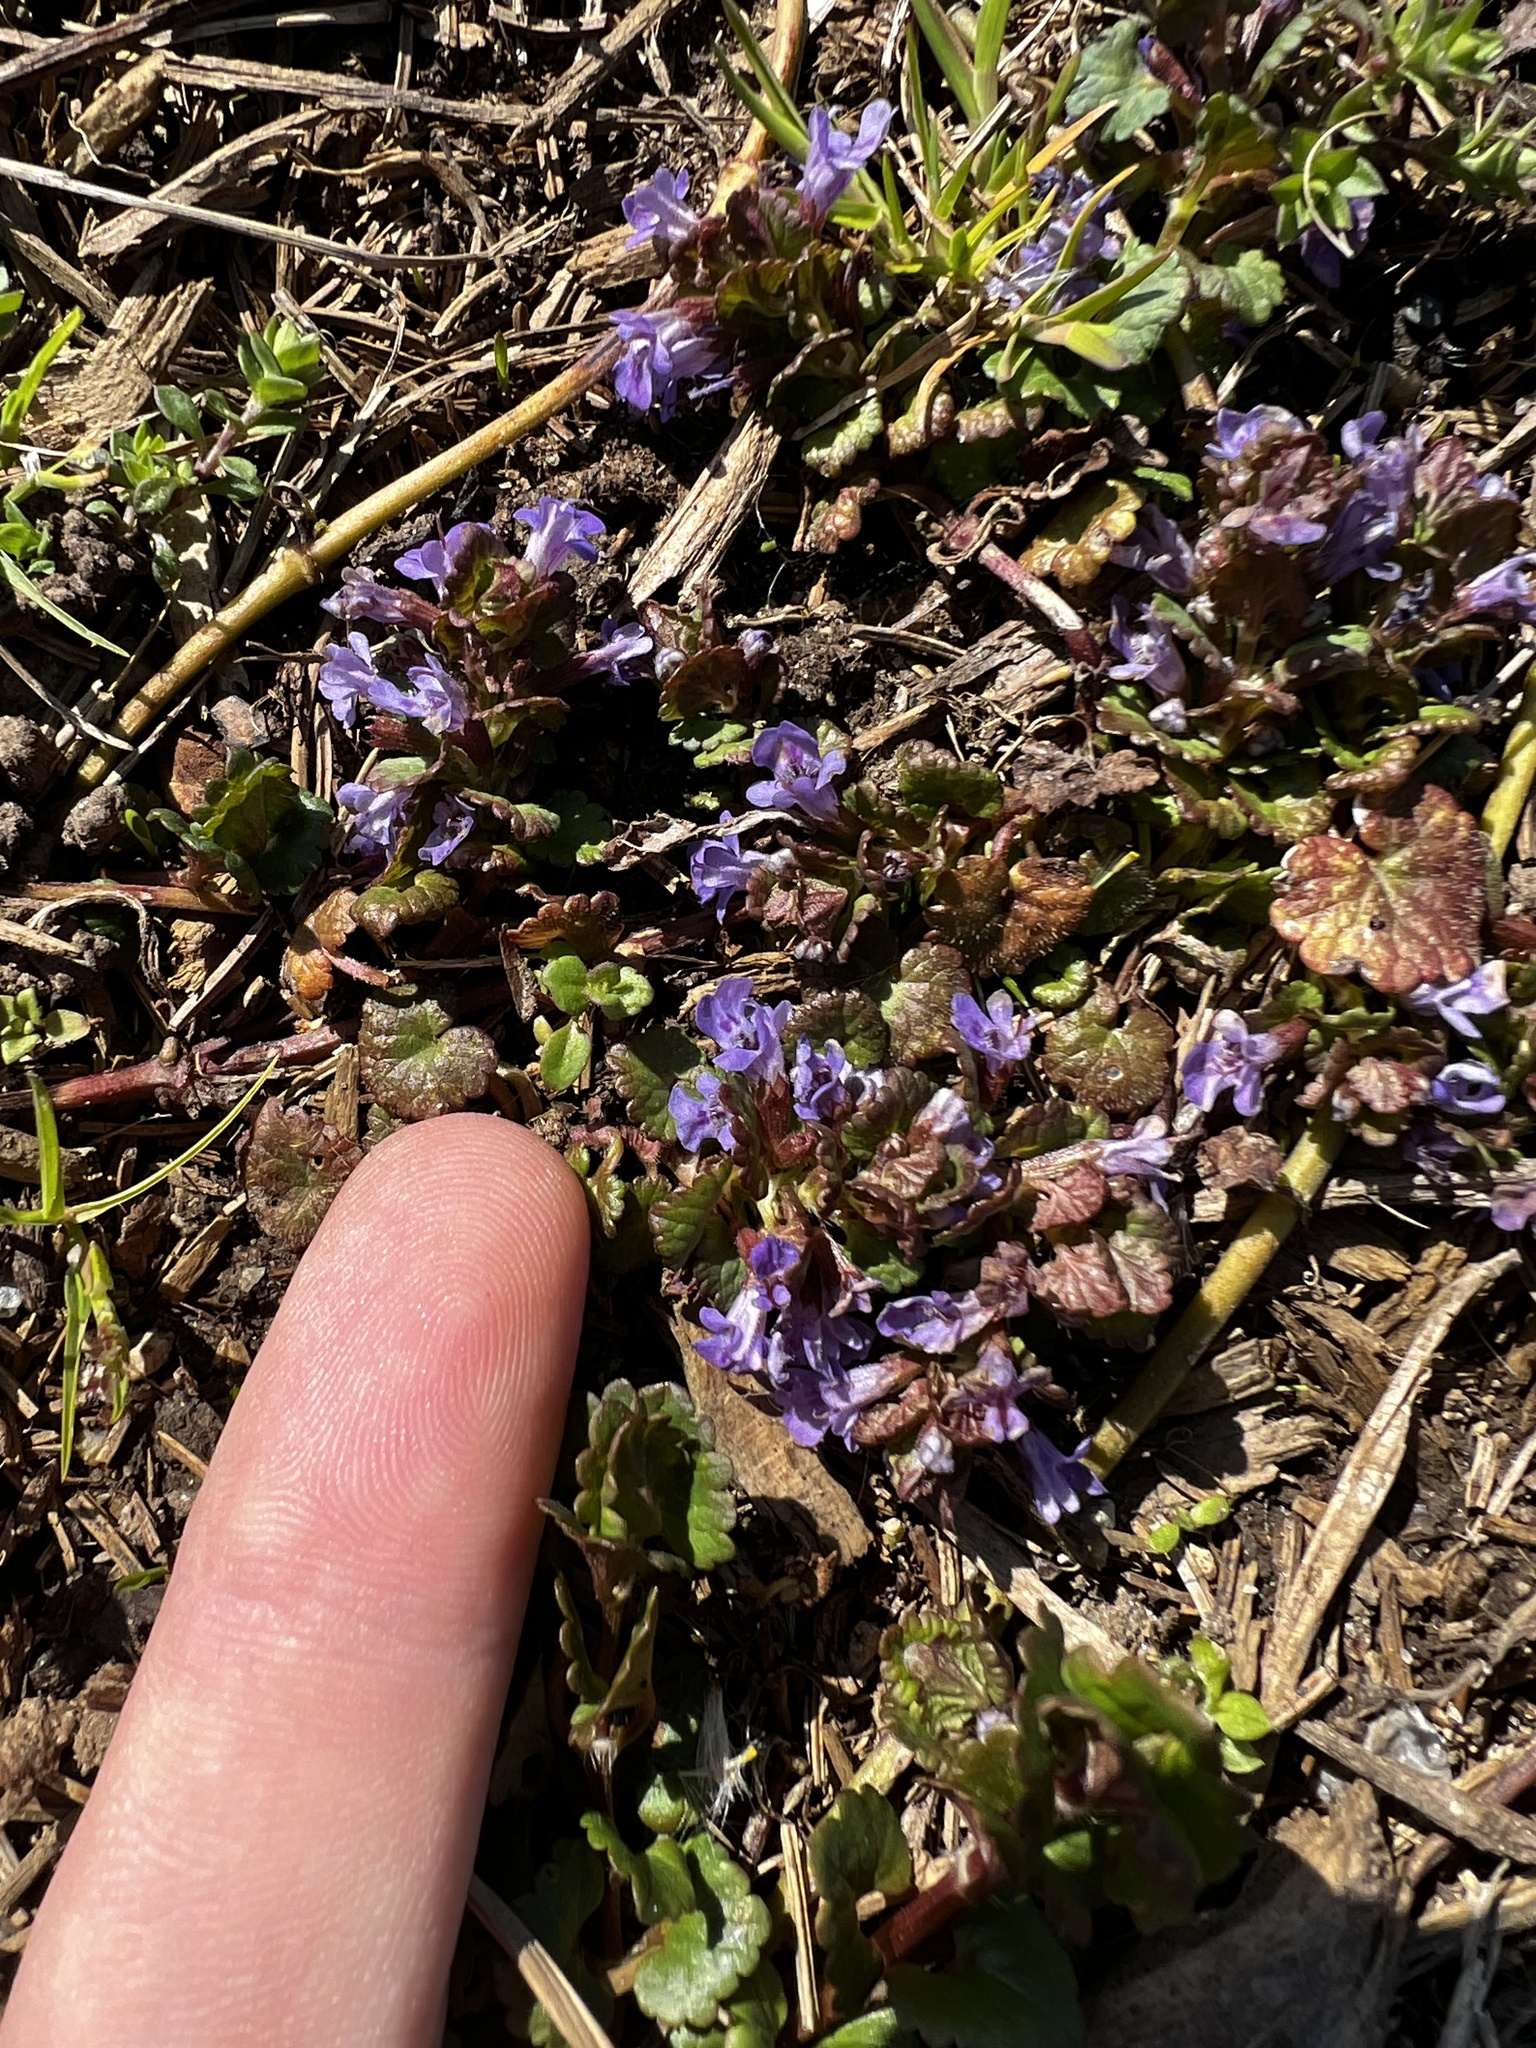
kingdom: Plantae
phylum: Tracheophyta
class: Magnoliopsida
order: Lamiales
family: Lamiaceae
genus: Glechoma
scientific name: Glechoma hederacea
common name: Ground ivy
